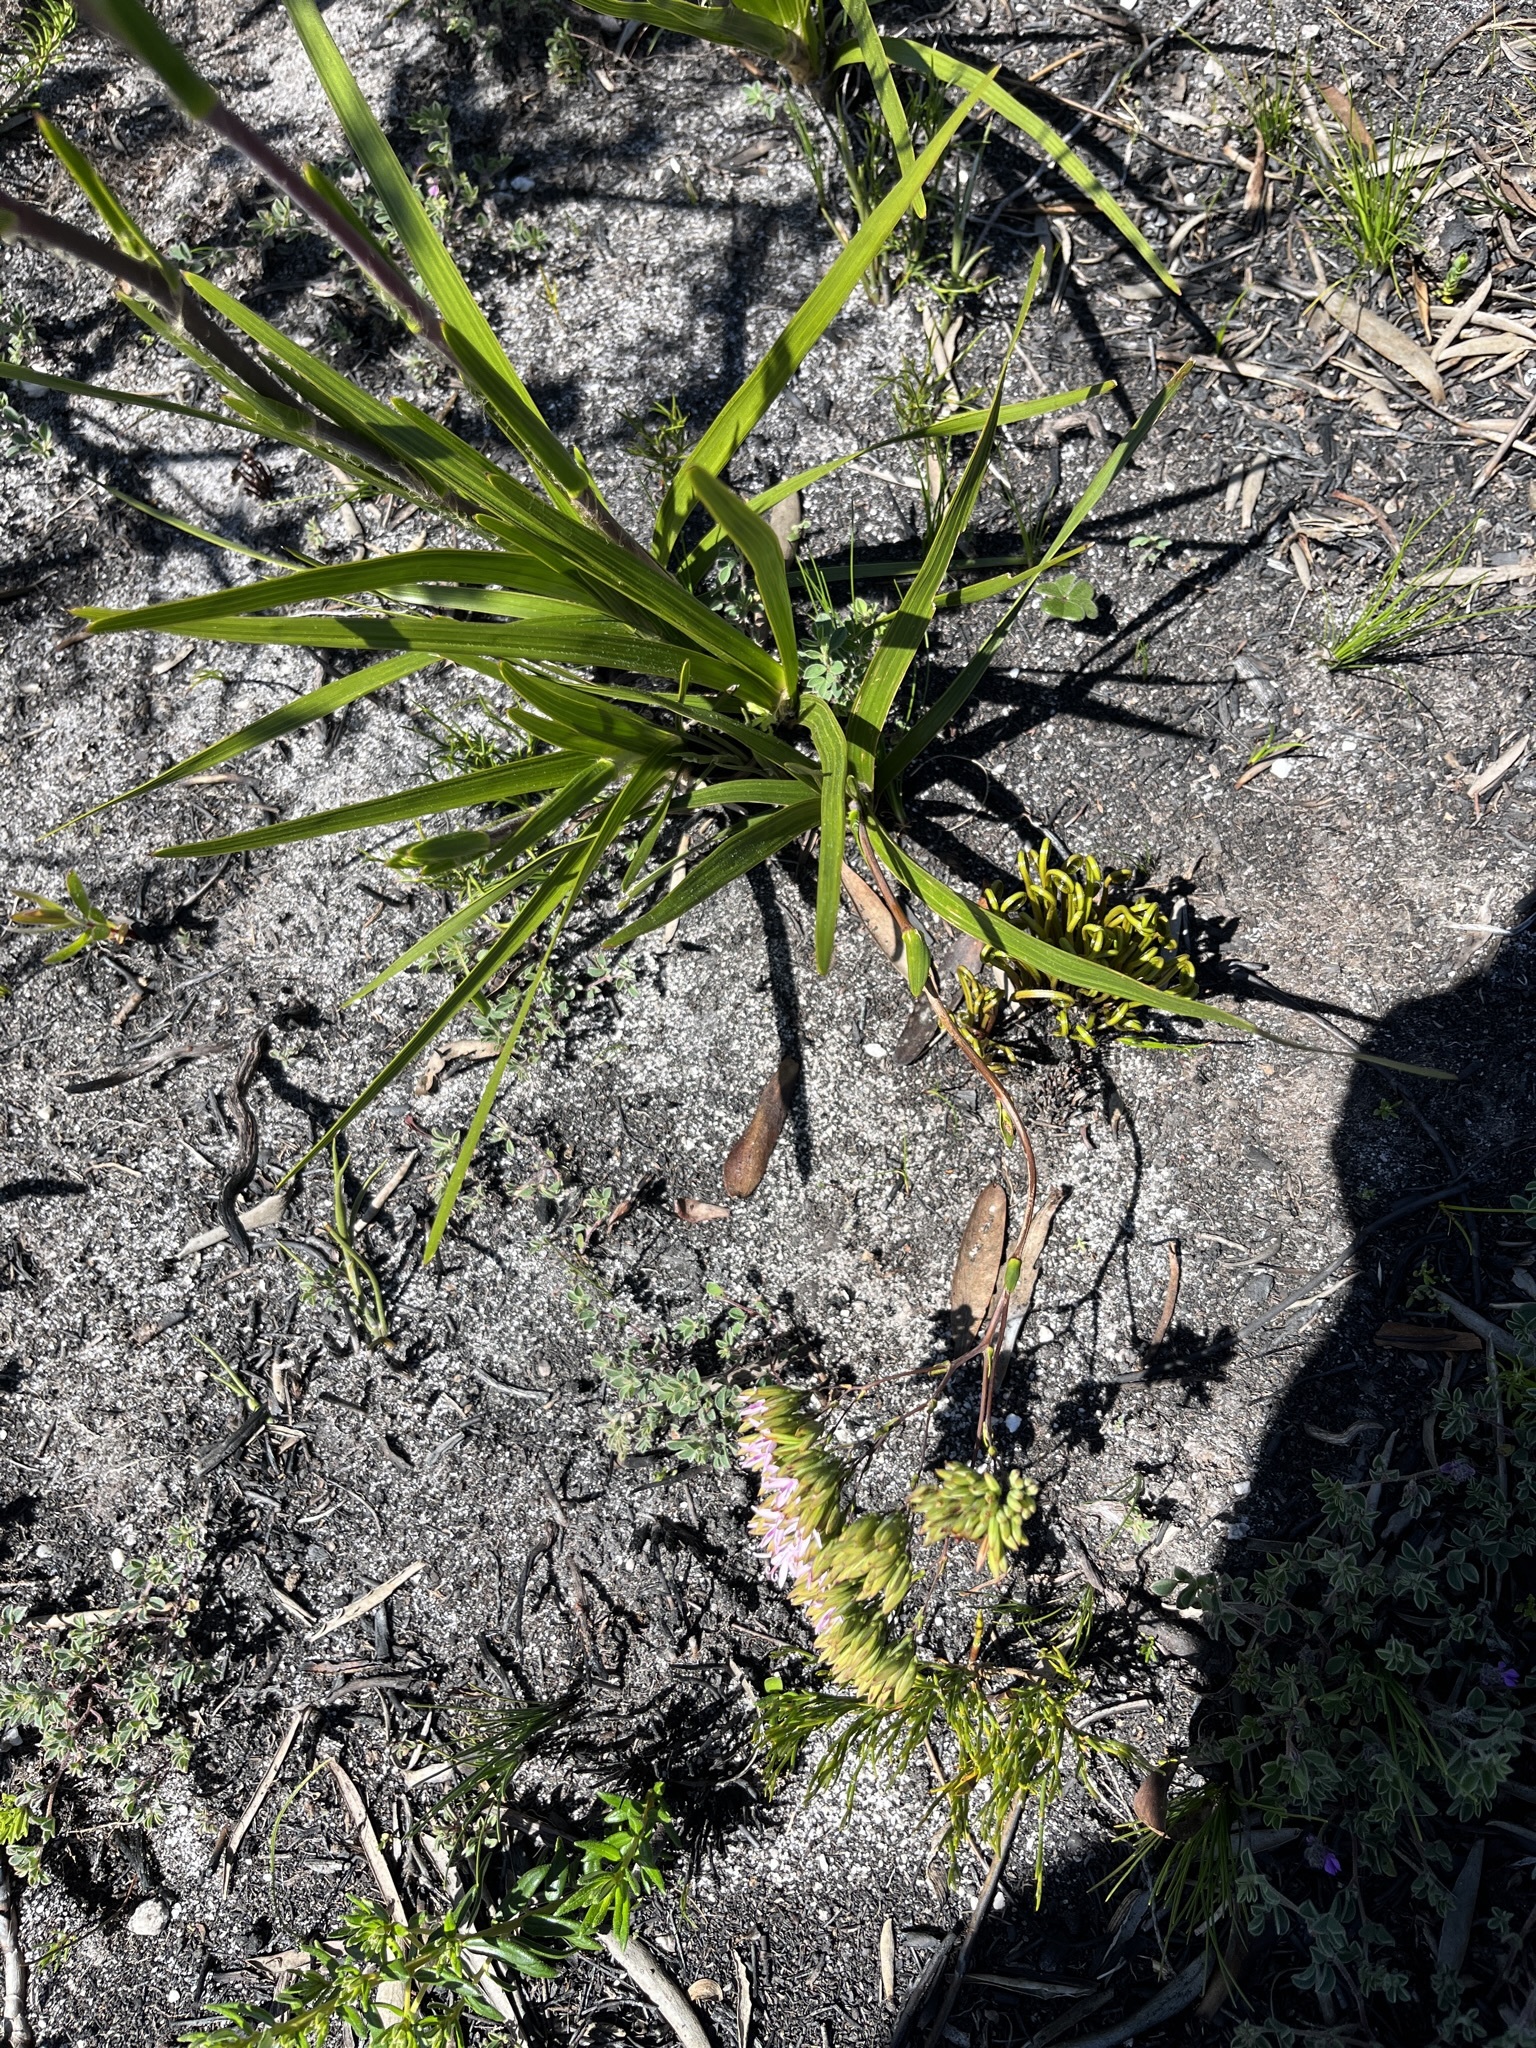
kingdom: Plantae
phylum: Tracheophyta
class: Magnoliopsida
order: Asterales
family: Asteraceae
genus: Corymbium
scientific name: Corymbium glabrum
